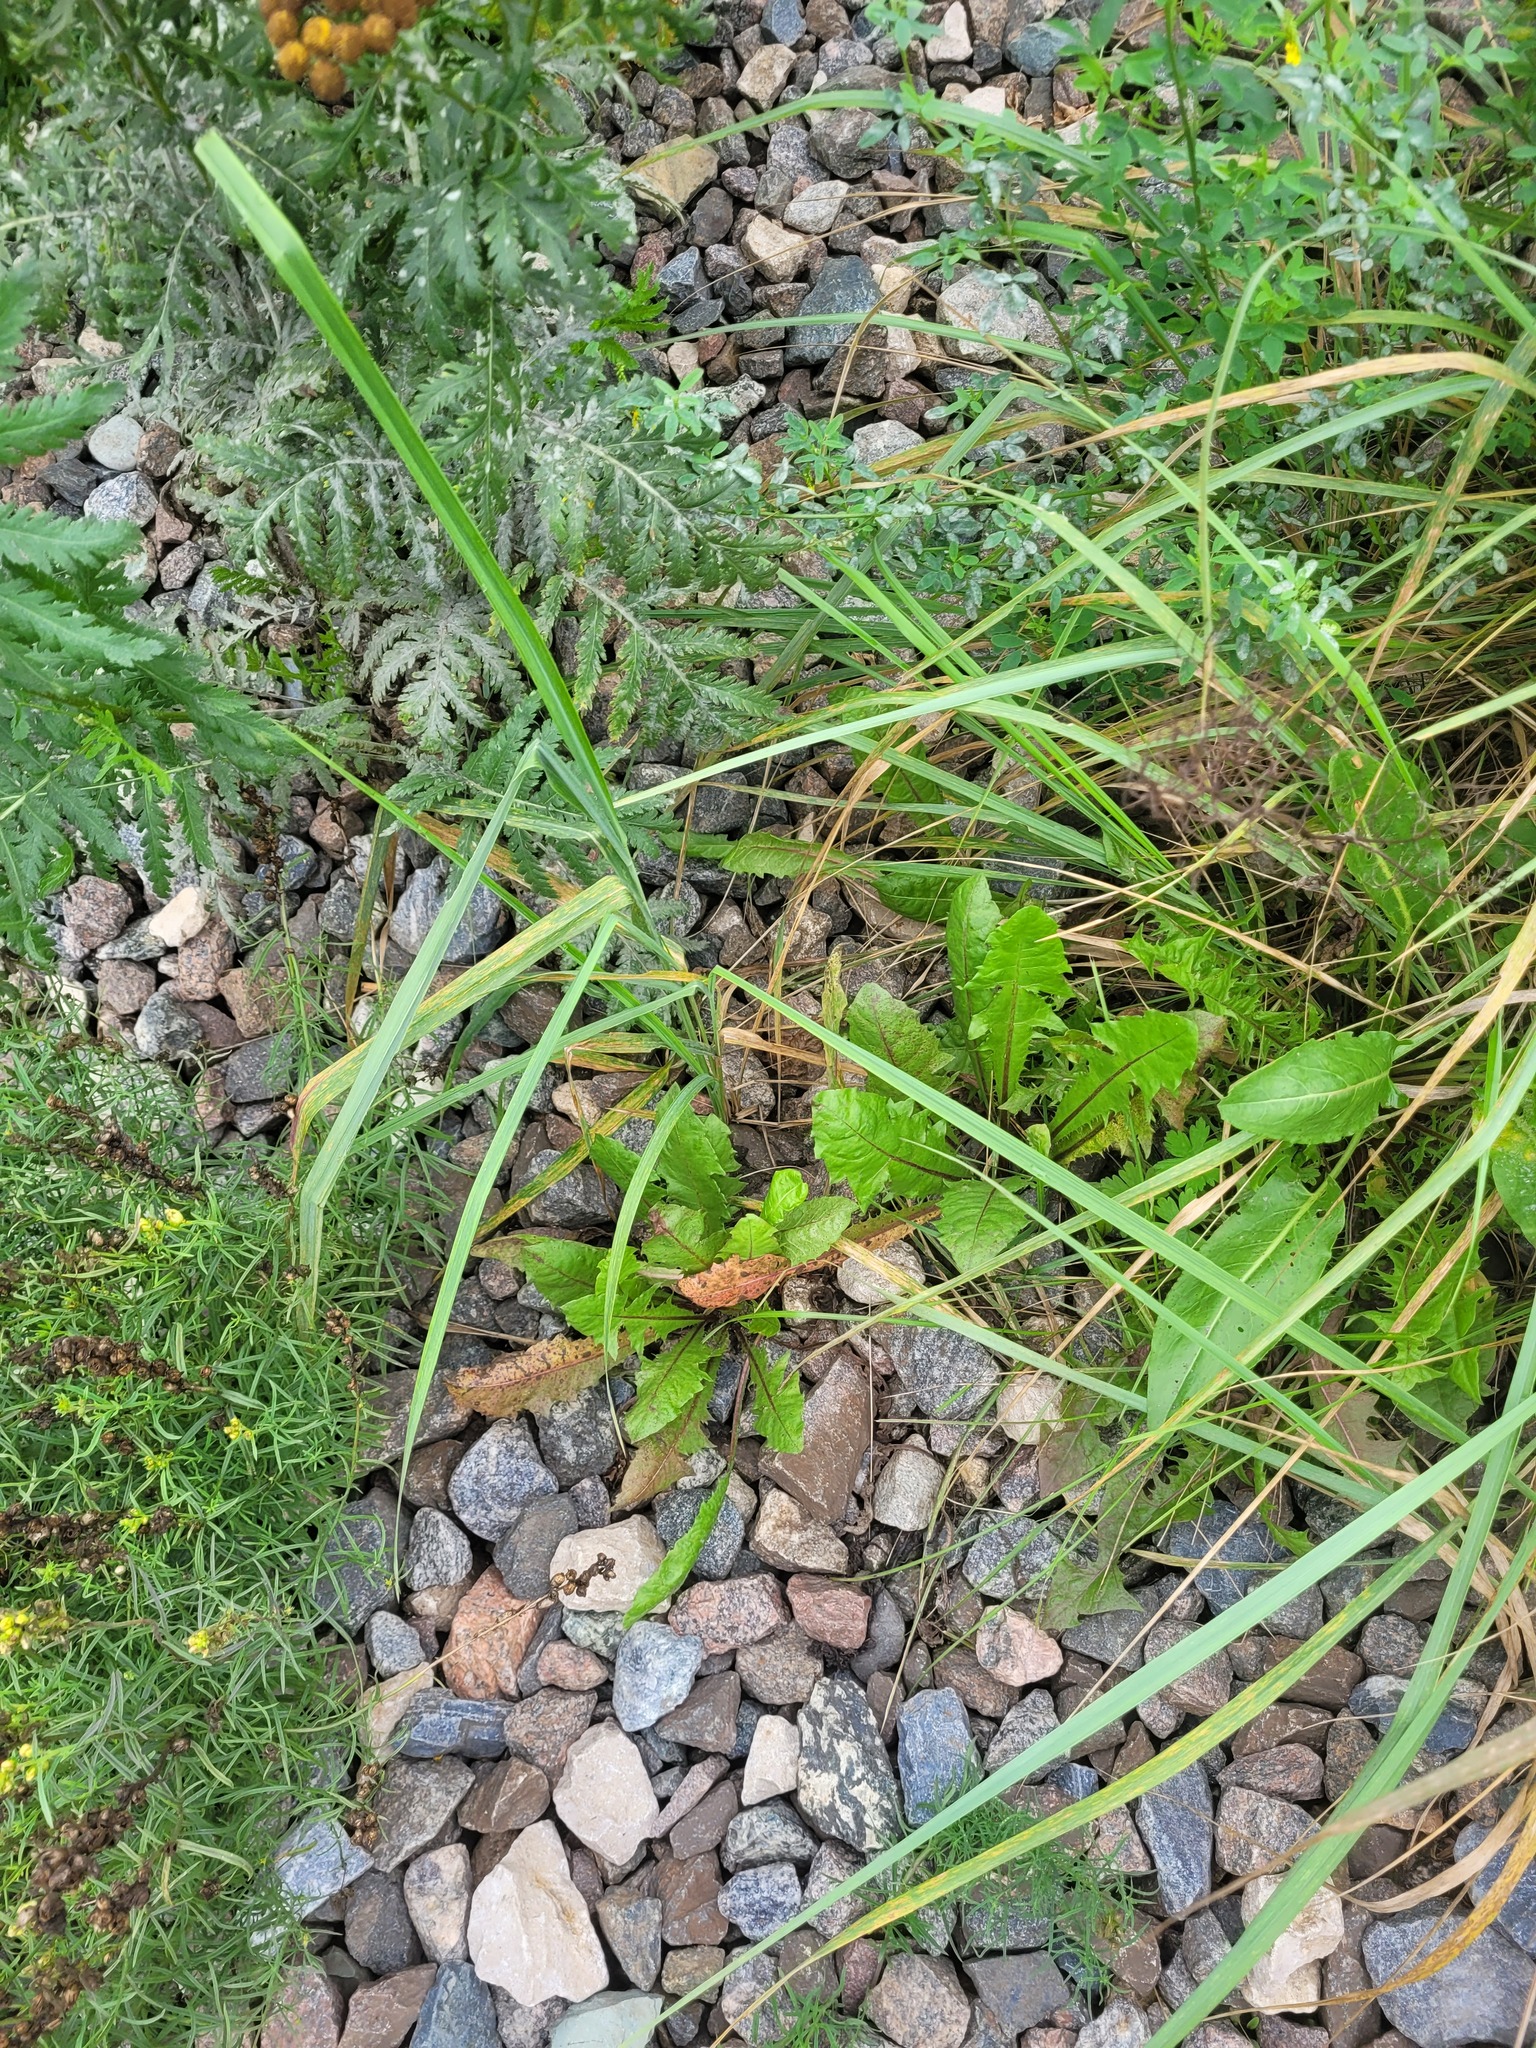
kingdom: Plantae
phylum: Tracheophyta
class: Magnoliopsida
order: Asterales
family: Asteraceae
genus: Taraxacum
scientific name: Taraxacum officinale
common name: Common dandelion
